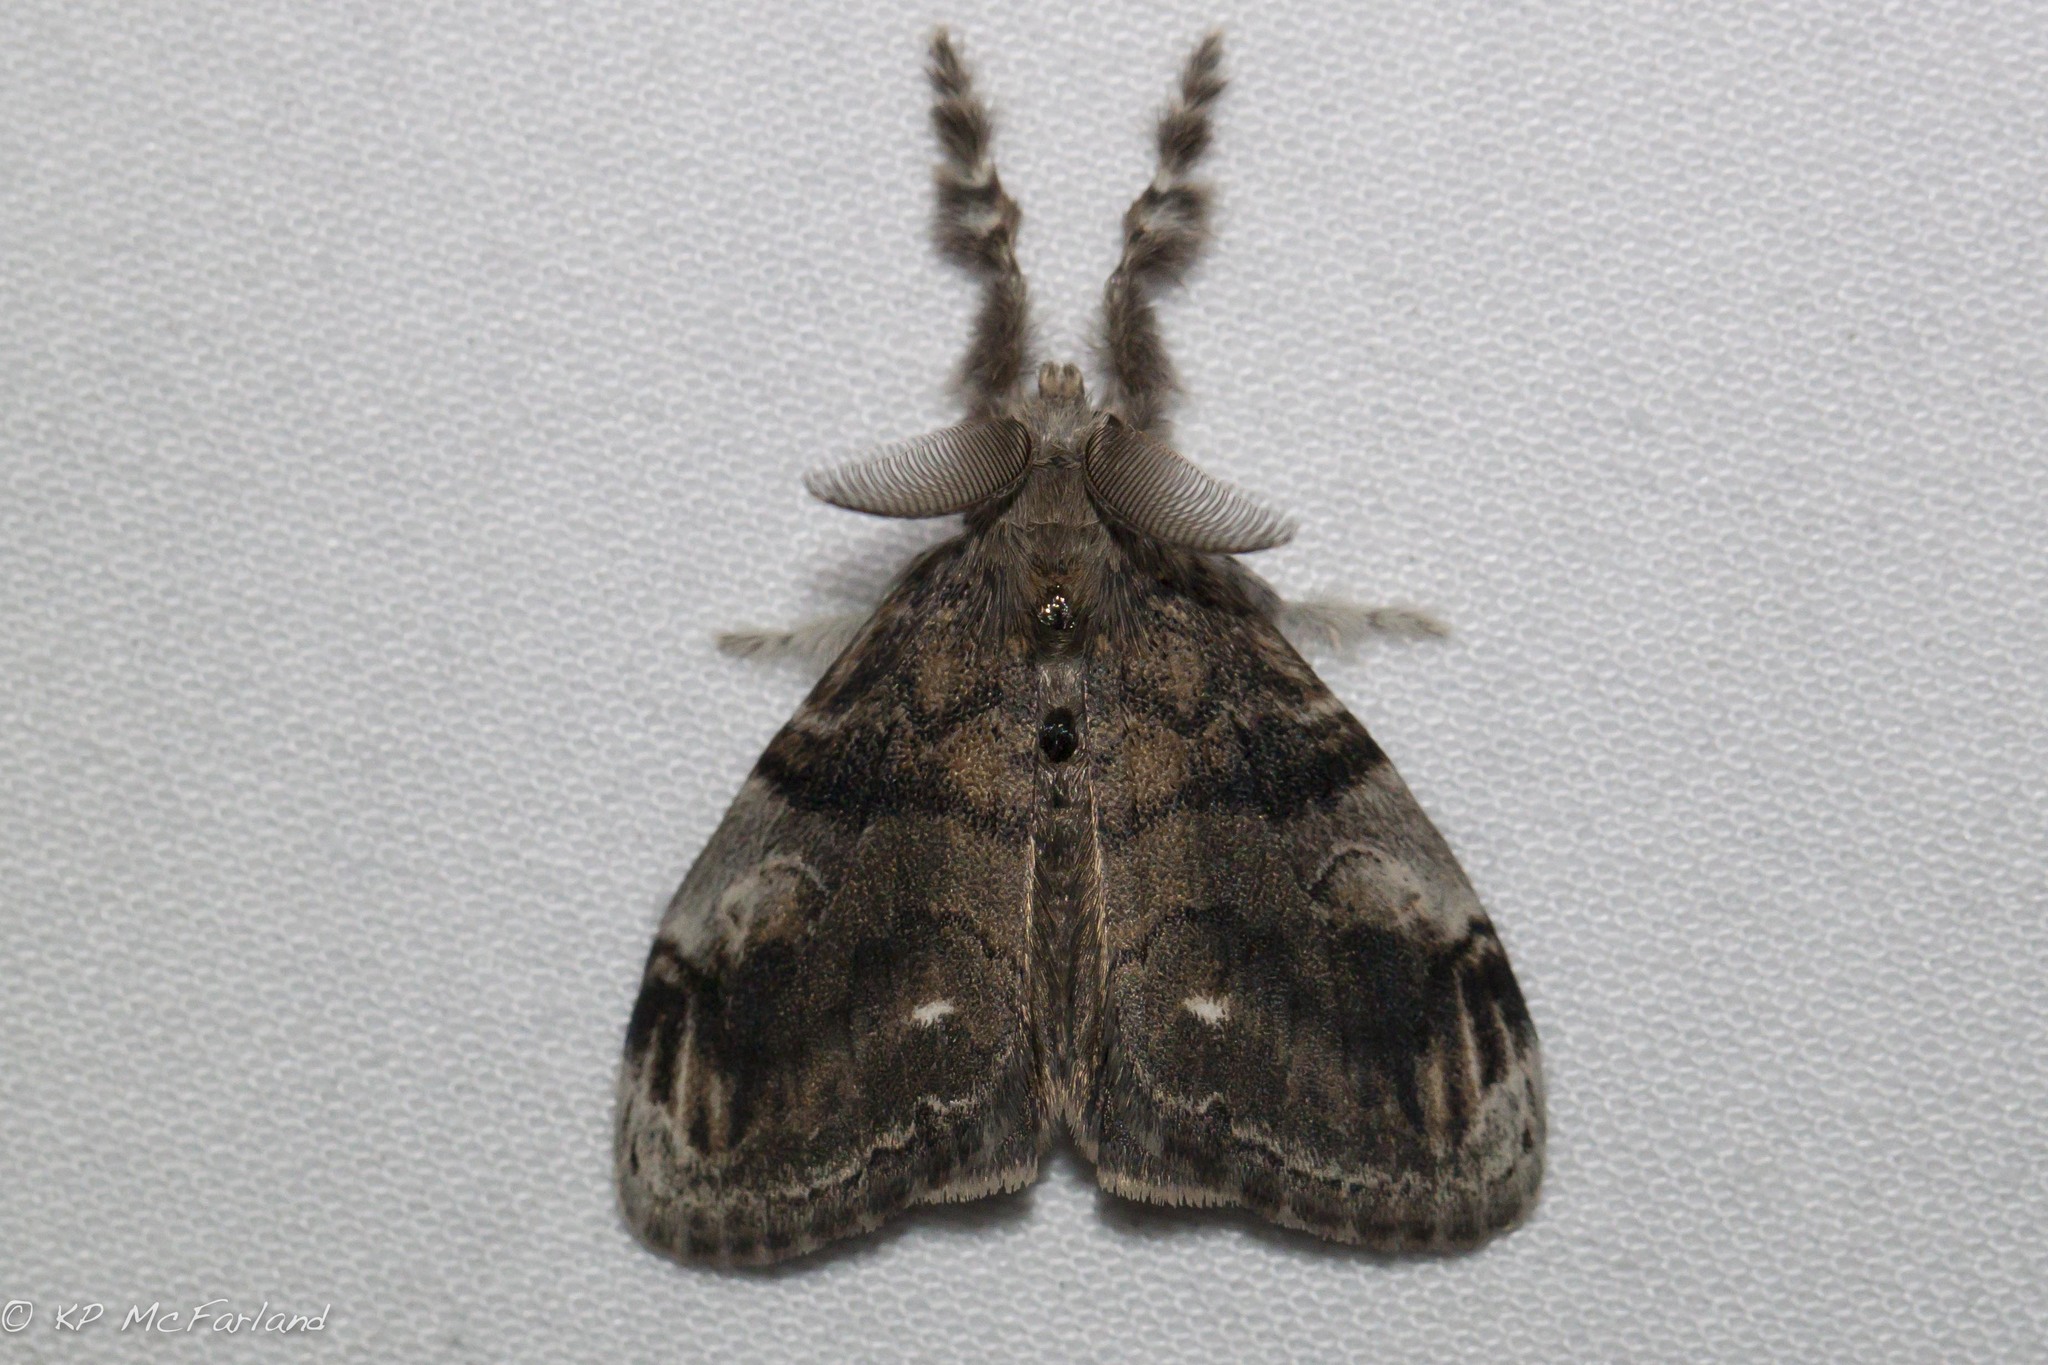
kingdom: Animalia
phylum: Arthropoda
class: Insecta
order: Lepidoptera
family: Erebidae
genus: Orgyia
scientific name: Orgyia leucostigma
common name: White-marked tussock moth
